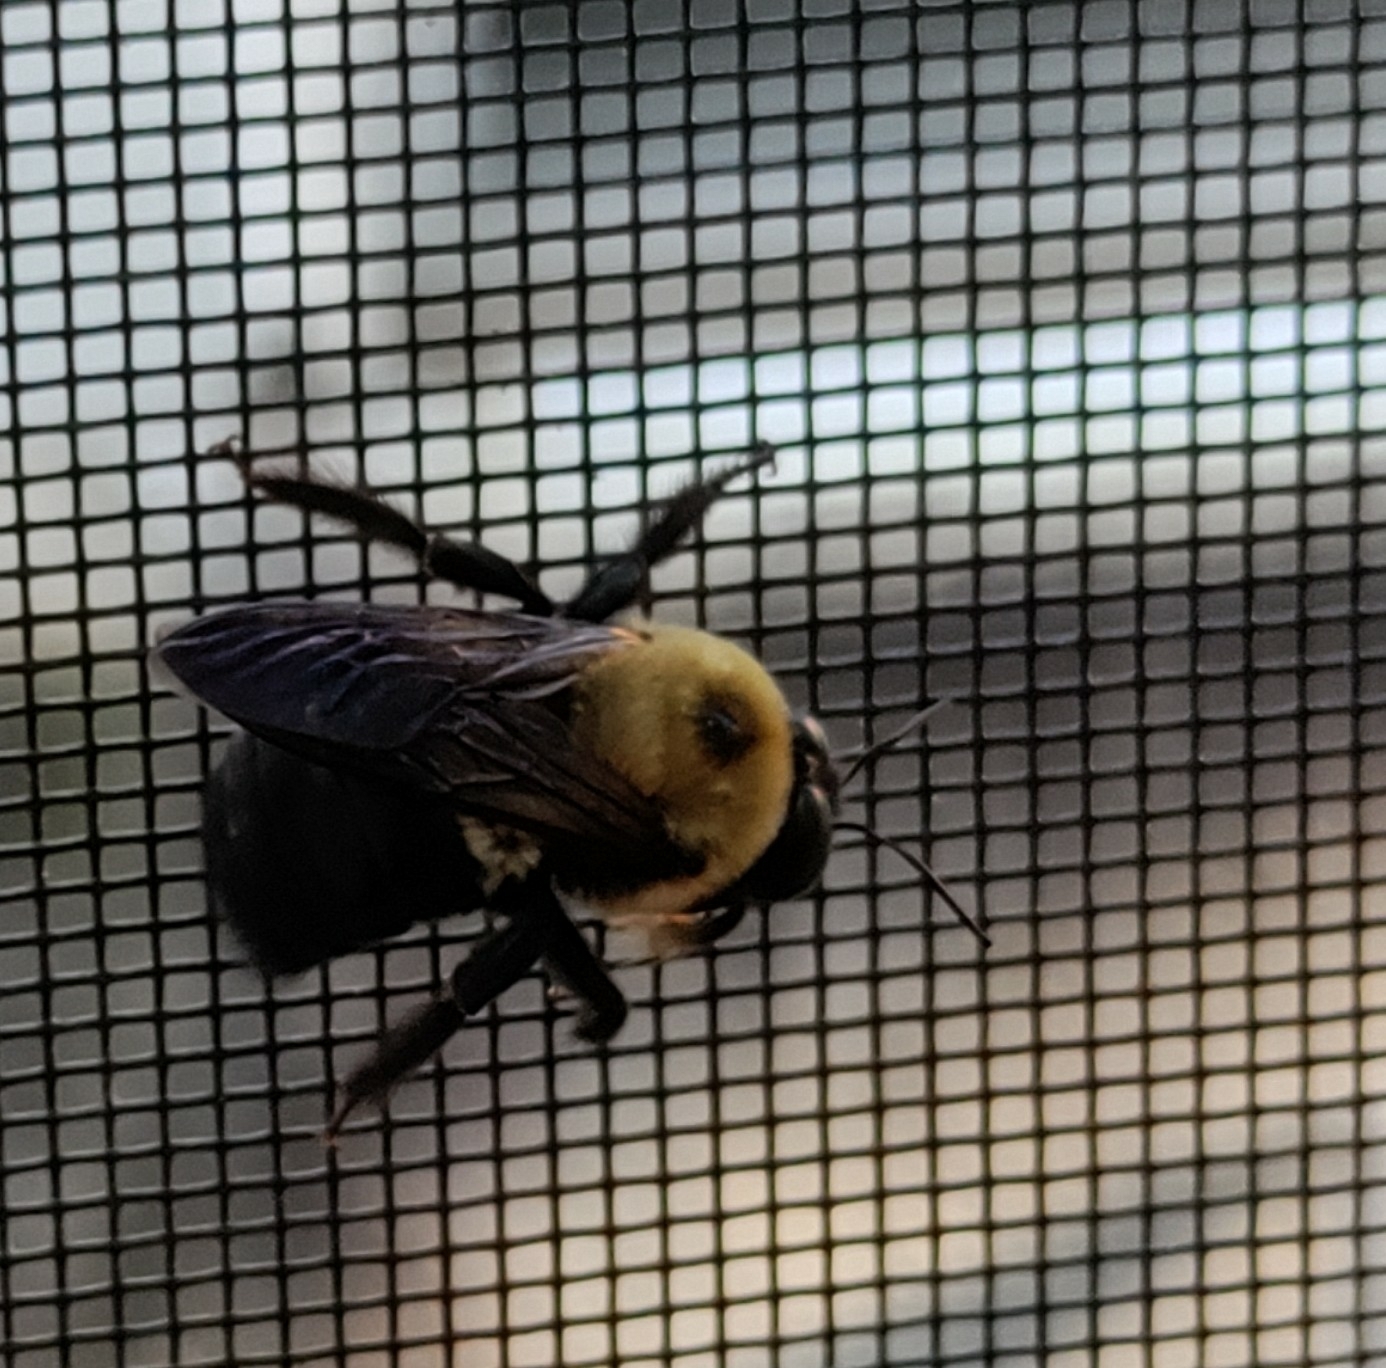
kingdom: Animalia
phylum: Arthropoda
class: Insecta
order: Hymenoptera
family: Apidae
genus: Xylocopa
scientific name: Xylocopa virginica
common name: Carpenter bee
